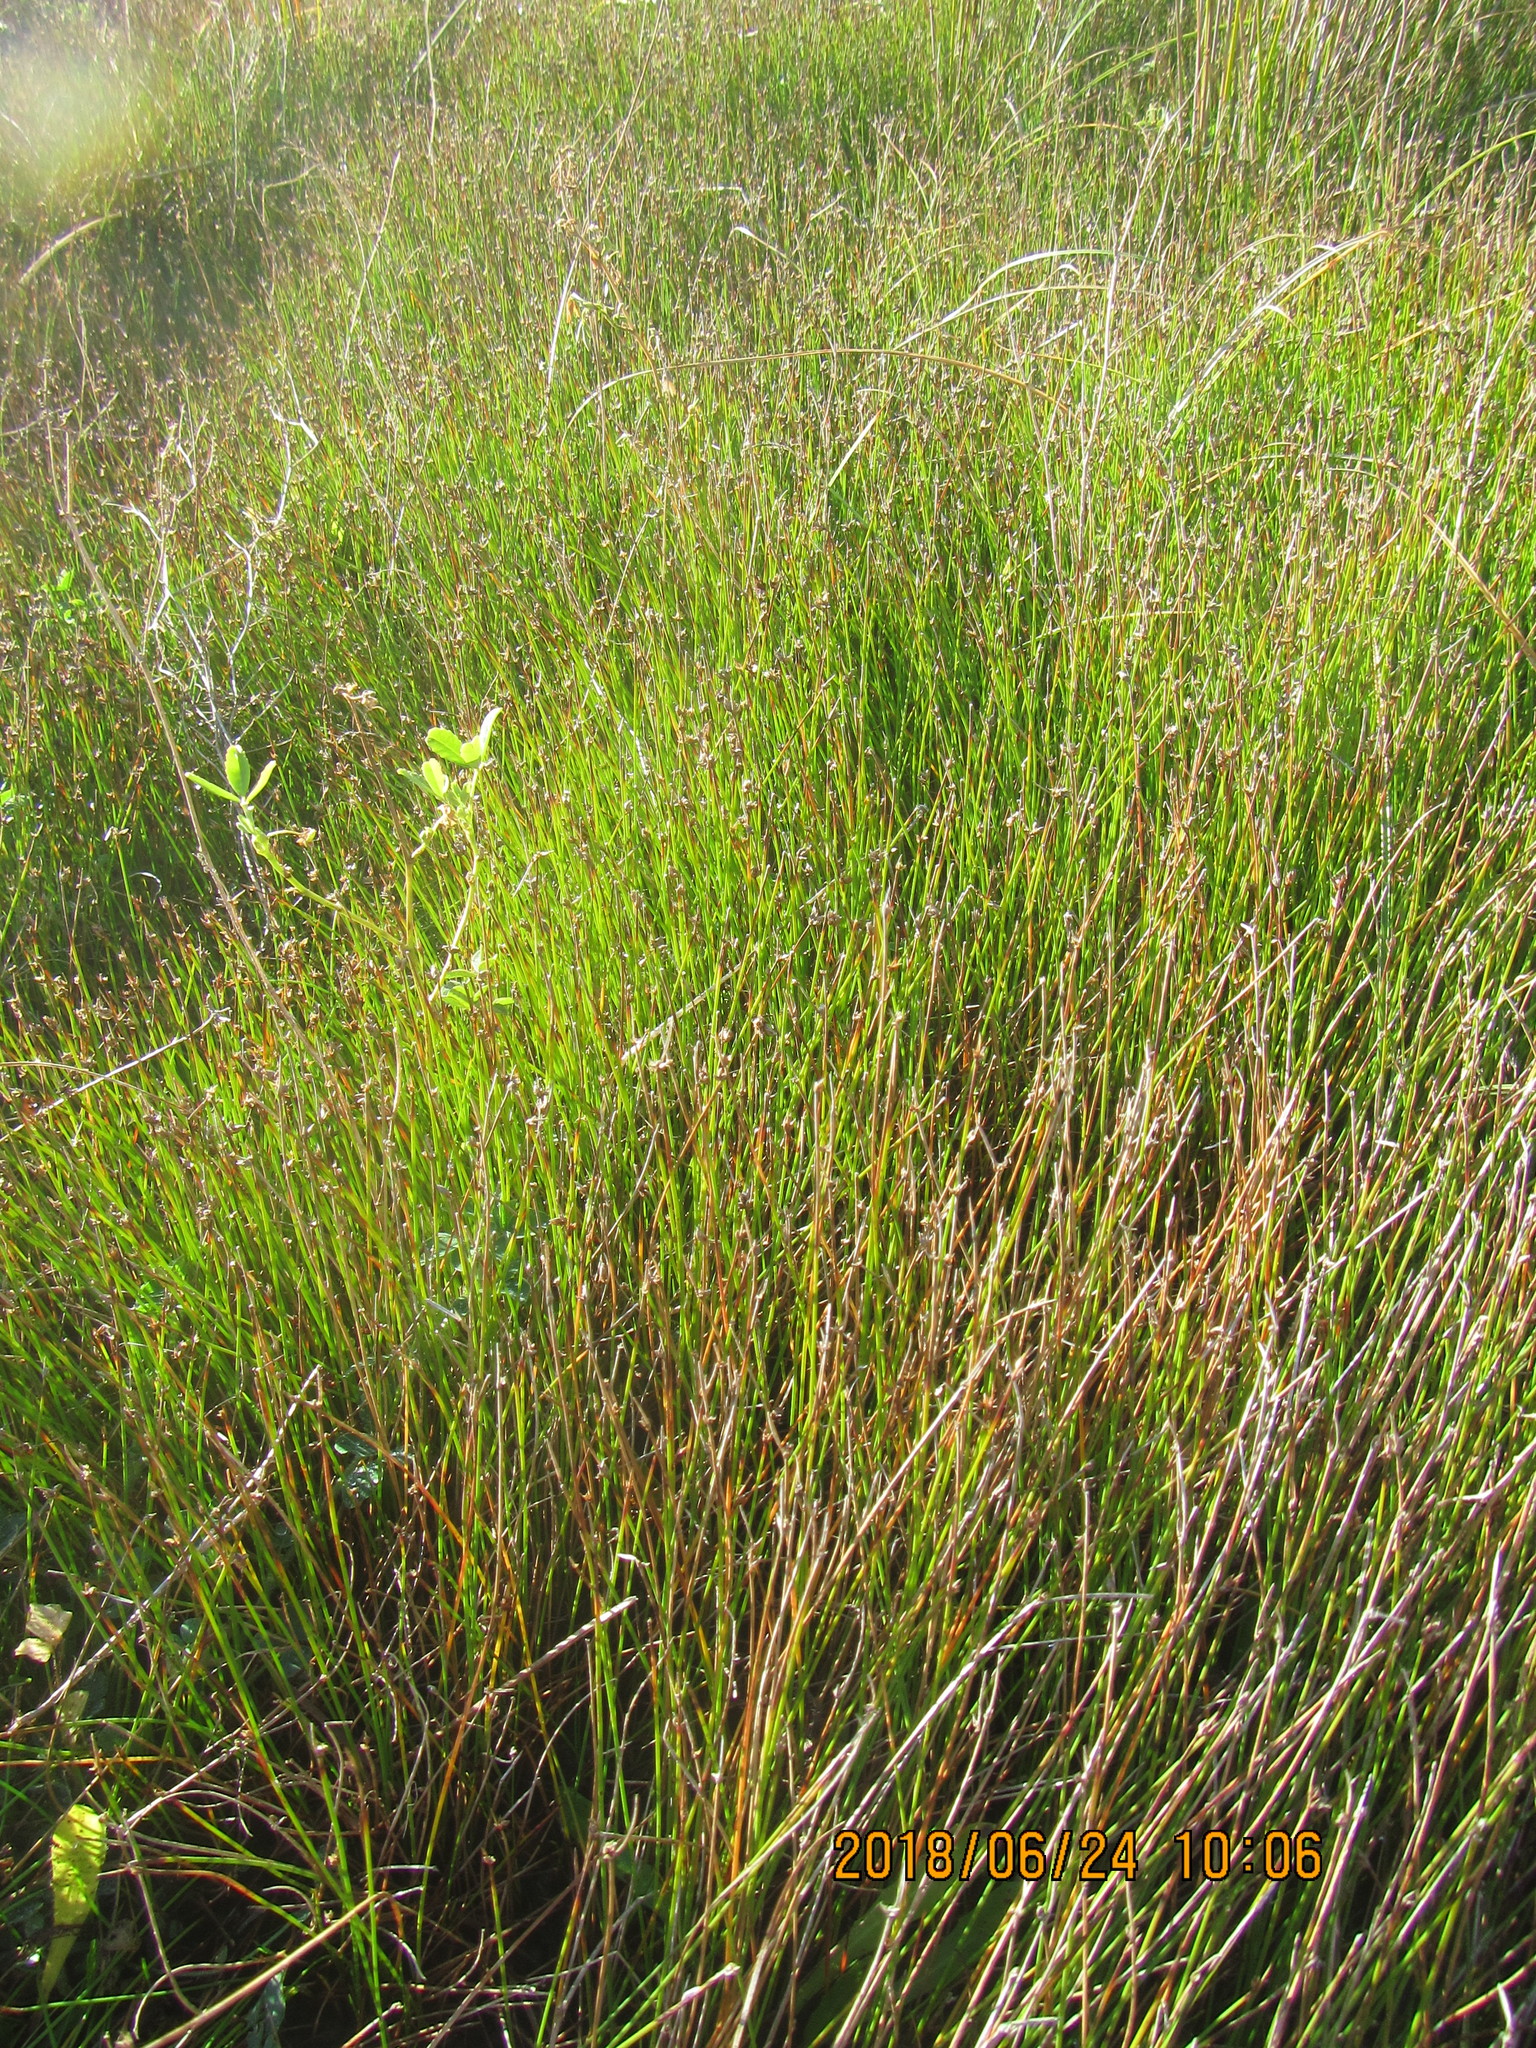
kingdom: Plantae
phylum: Tracheophyta
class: Liliopsida
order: Poales
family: Cyperaceae
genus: Schoenus
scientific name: Schoenus nitens
